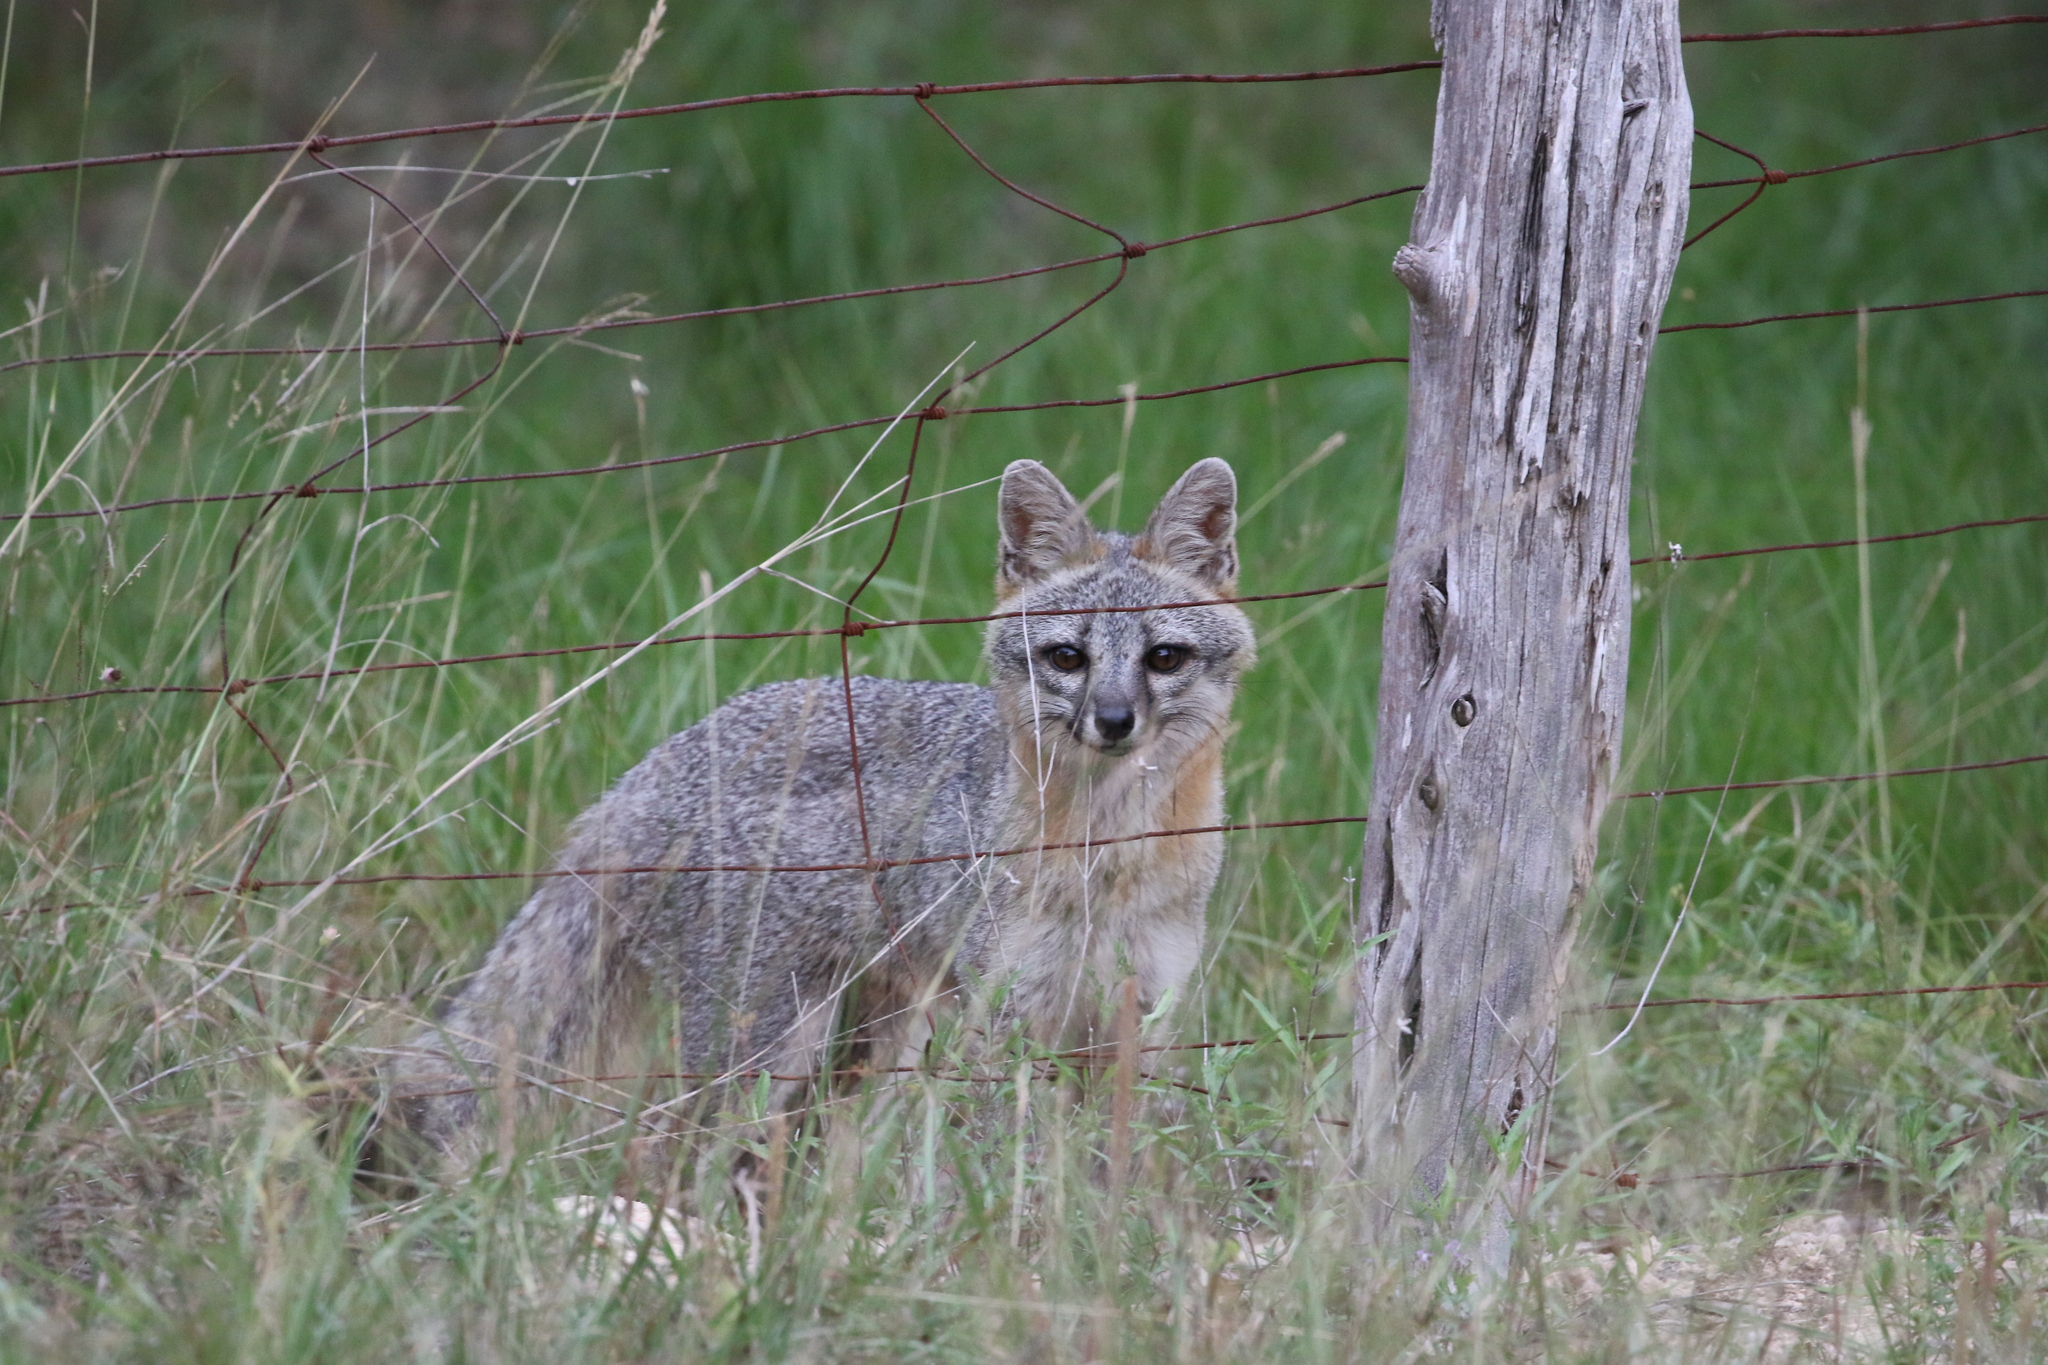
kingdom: Animalia
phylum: Chordata
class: Mammalia
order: Carnivora
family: Canidae
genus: Urocyon
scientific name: Urocyon cinereoargenteus
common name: Gray fox
